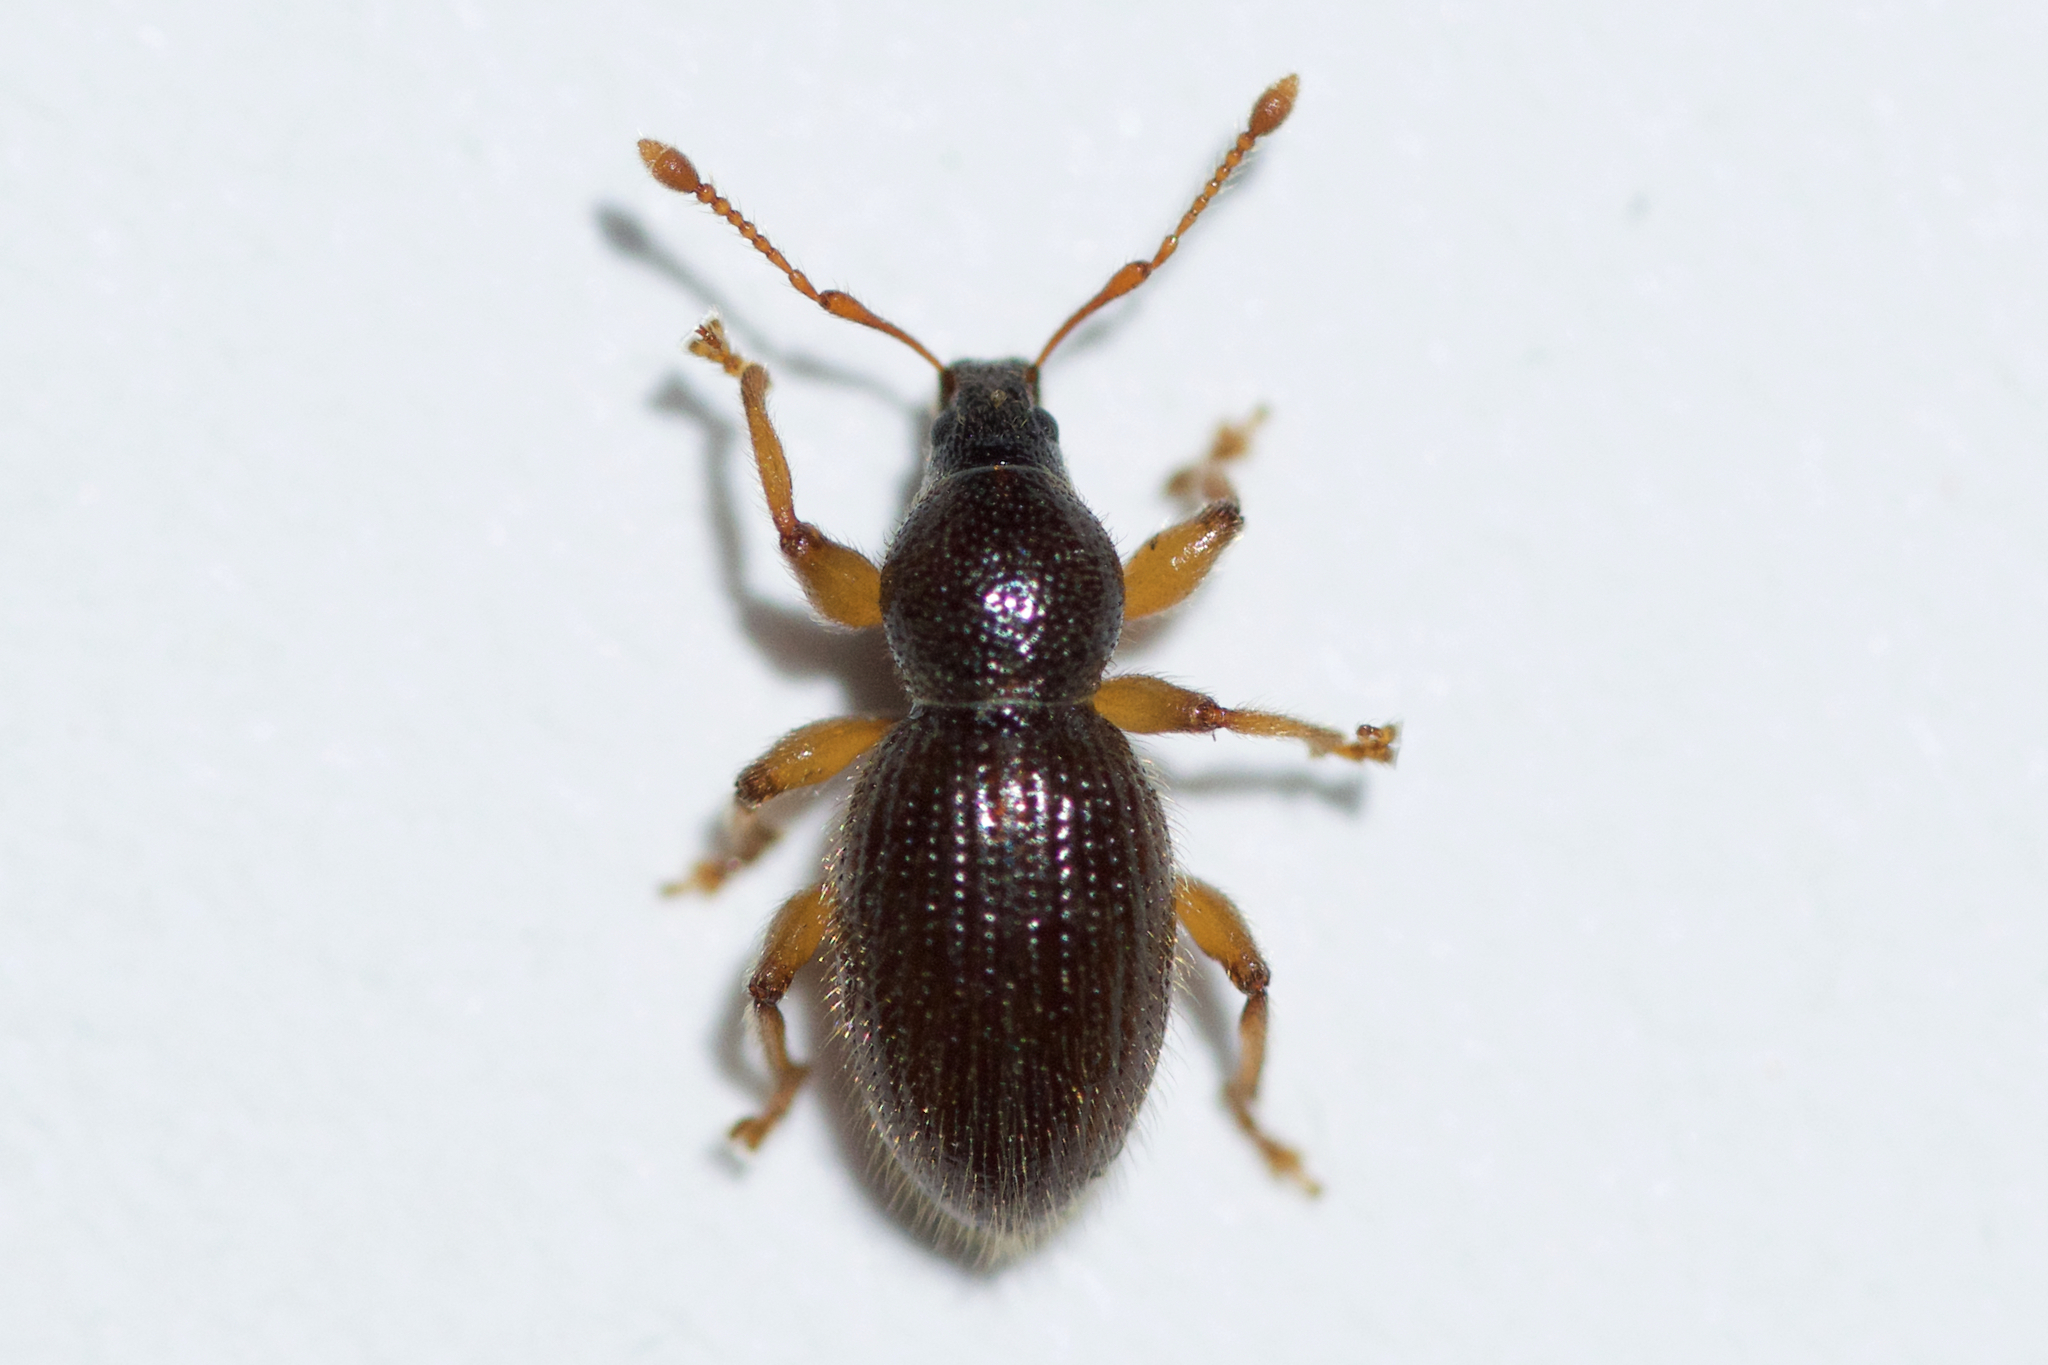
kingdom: Animalia
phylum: Arthropoda
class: Insecta
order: Coleoptera
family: Curculionidae
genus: Exomias
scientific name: Exomias pellucidus
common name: Hairy spider weevil
